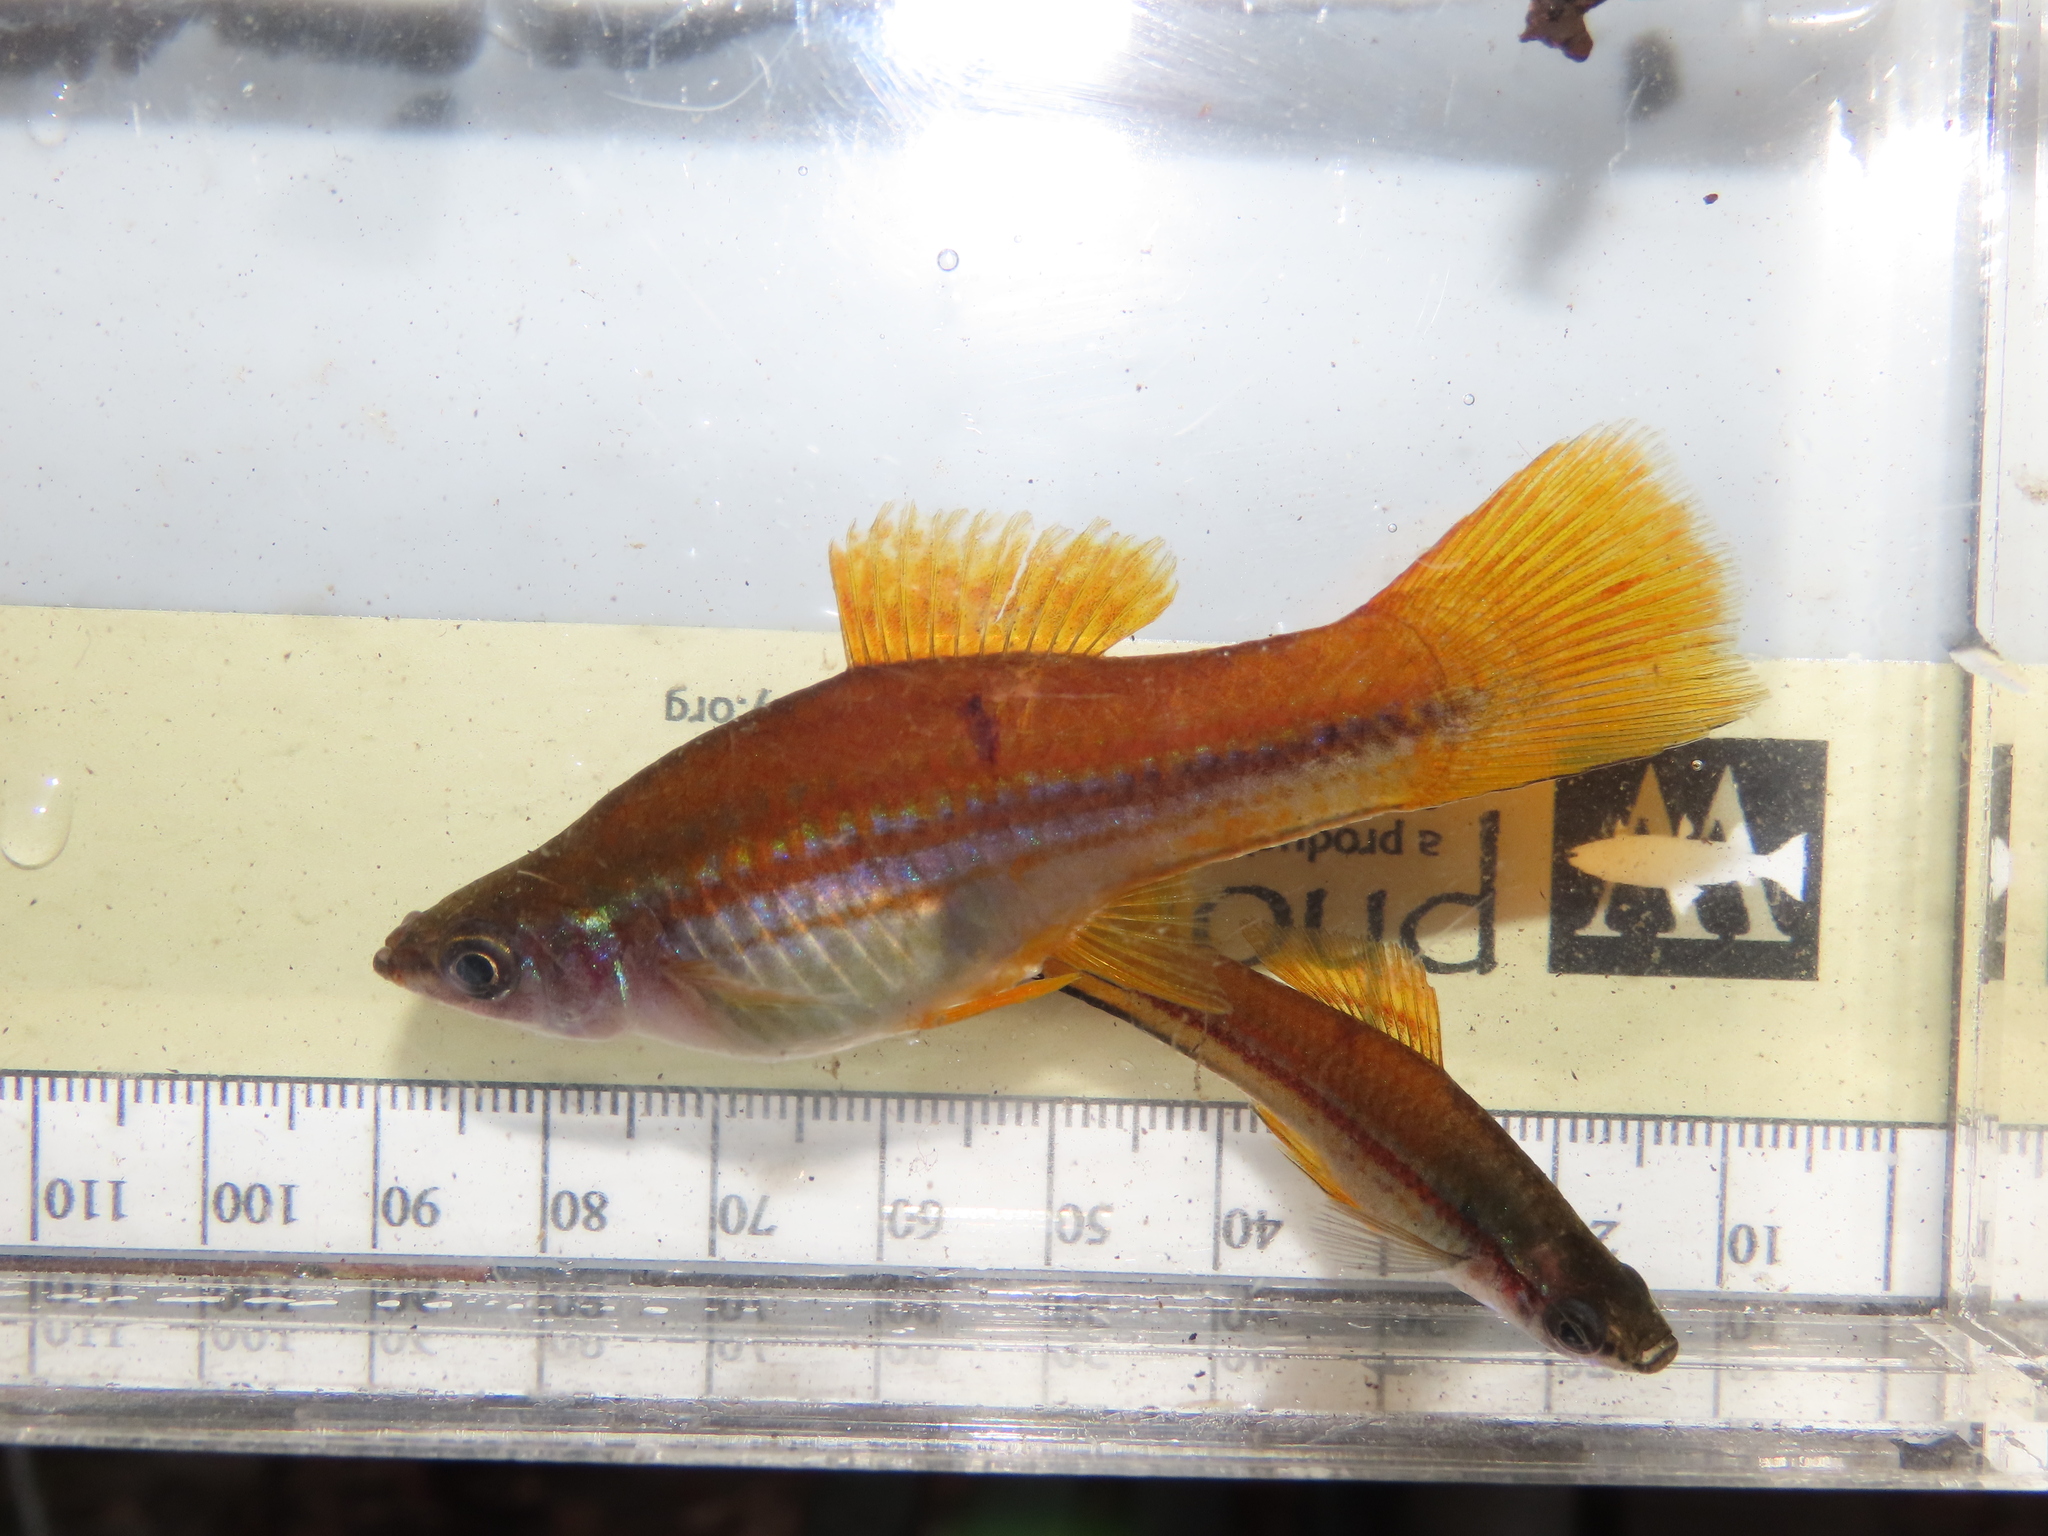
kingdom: Animalia
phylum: Chordata
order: Cyprinodontiformes
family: Poeciliidae
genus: Xiphophorus
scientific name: Xiphophorus hellerii
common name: Green swordtail
